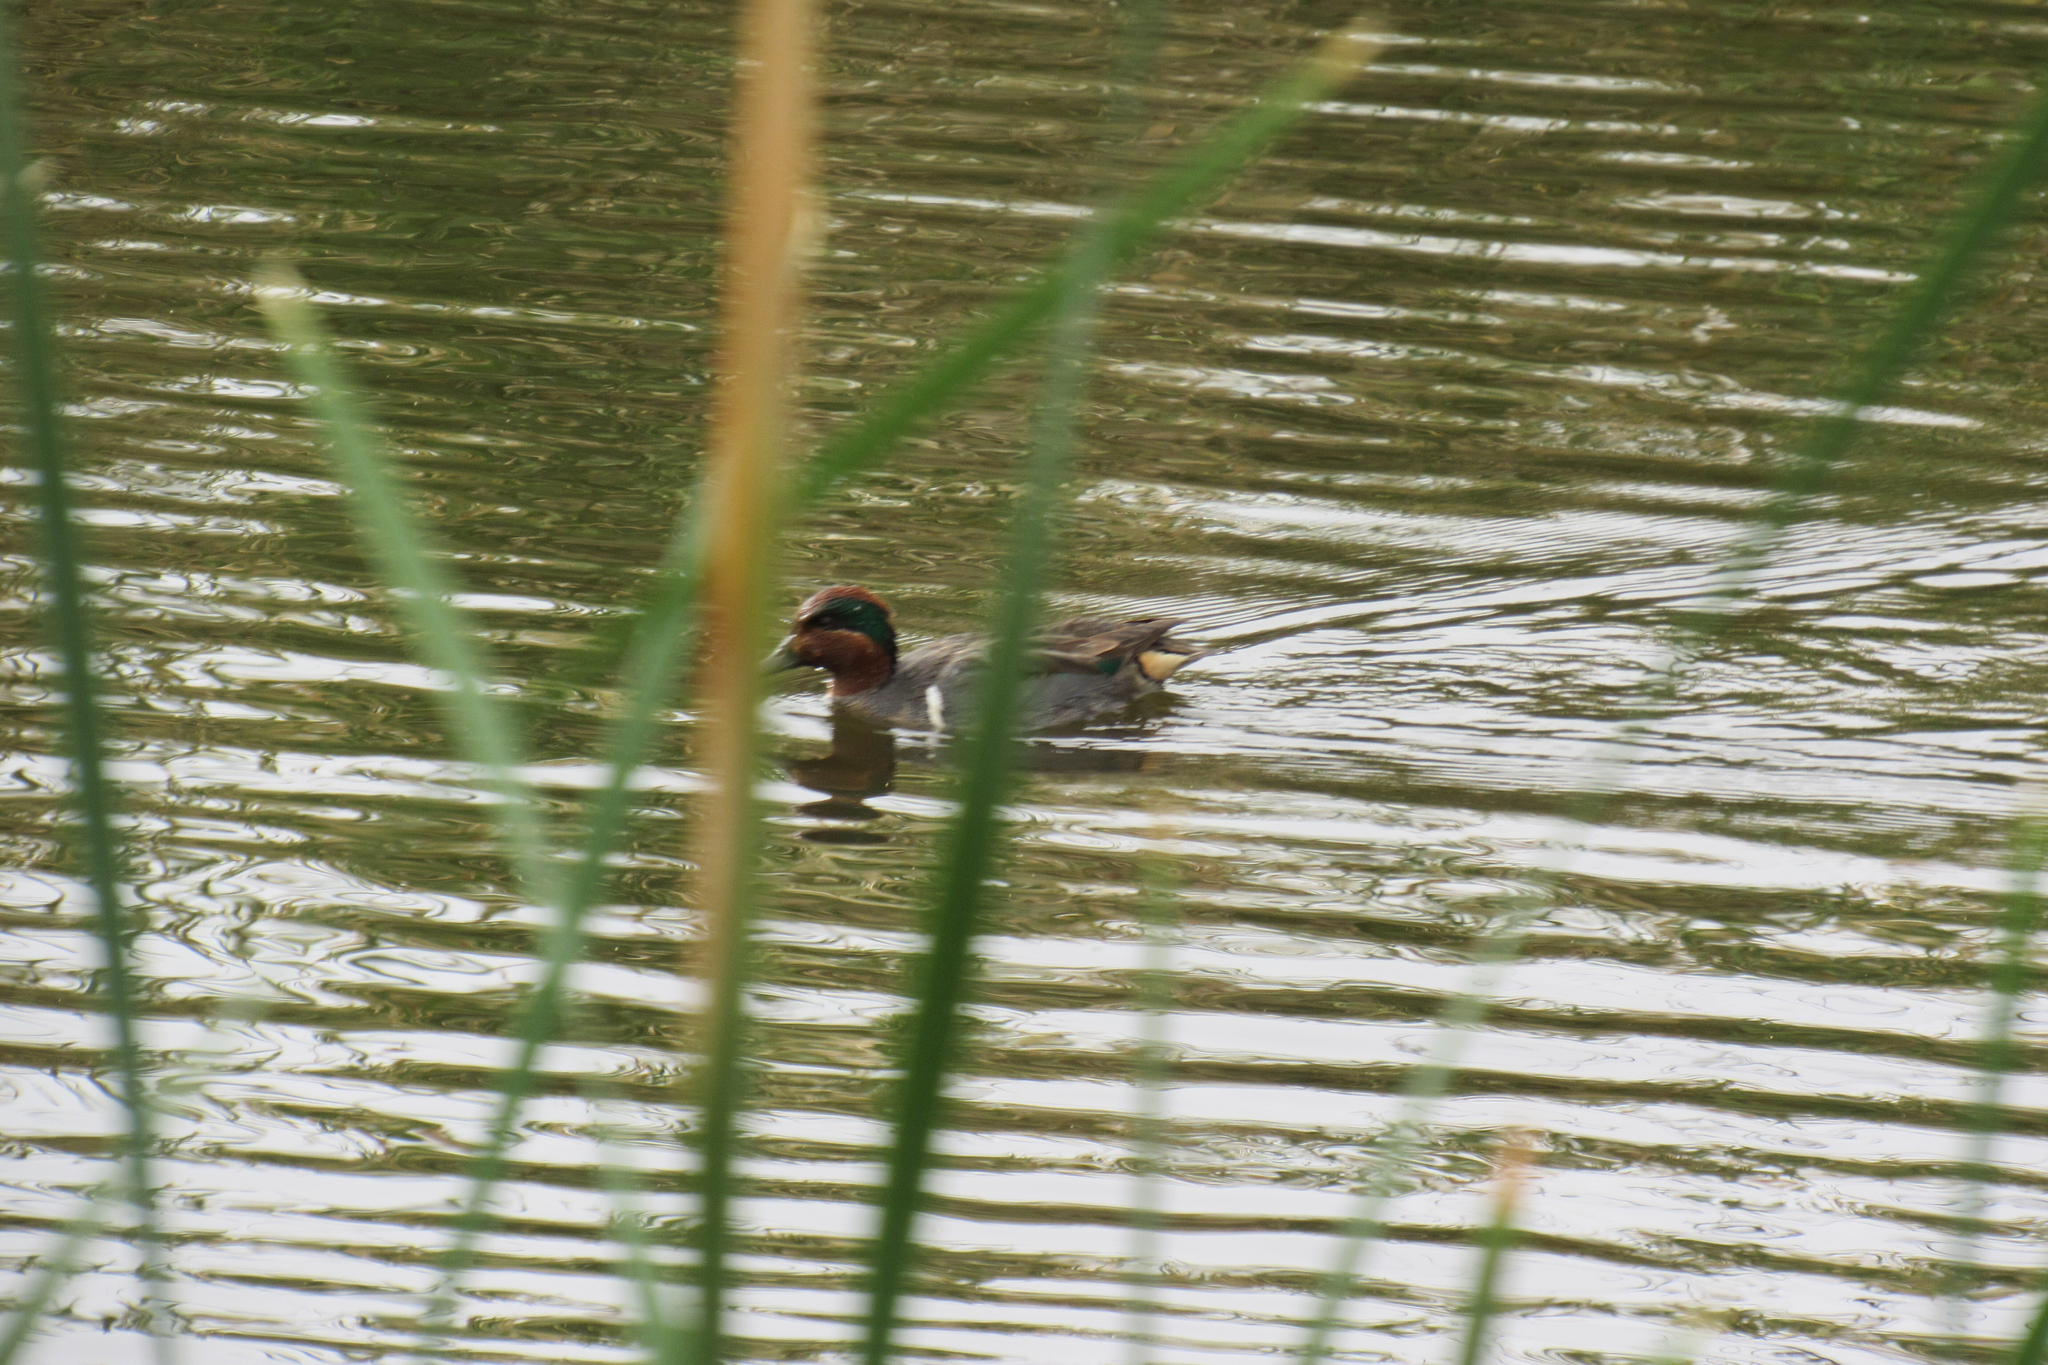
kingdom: Animalia
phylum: Chordata
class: Aves
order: Anseriformes
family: Anatidae
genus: Anas
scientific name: Anas carolinensis
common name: Green-winged teal
